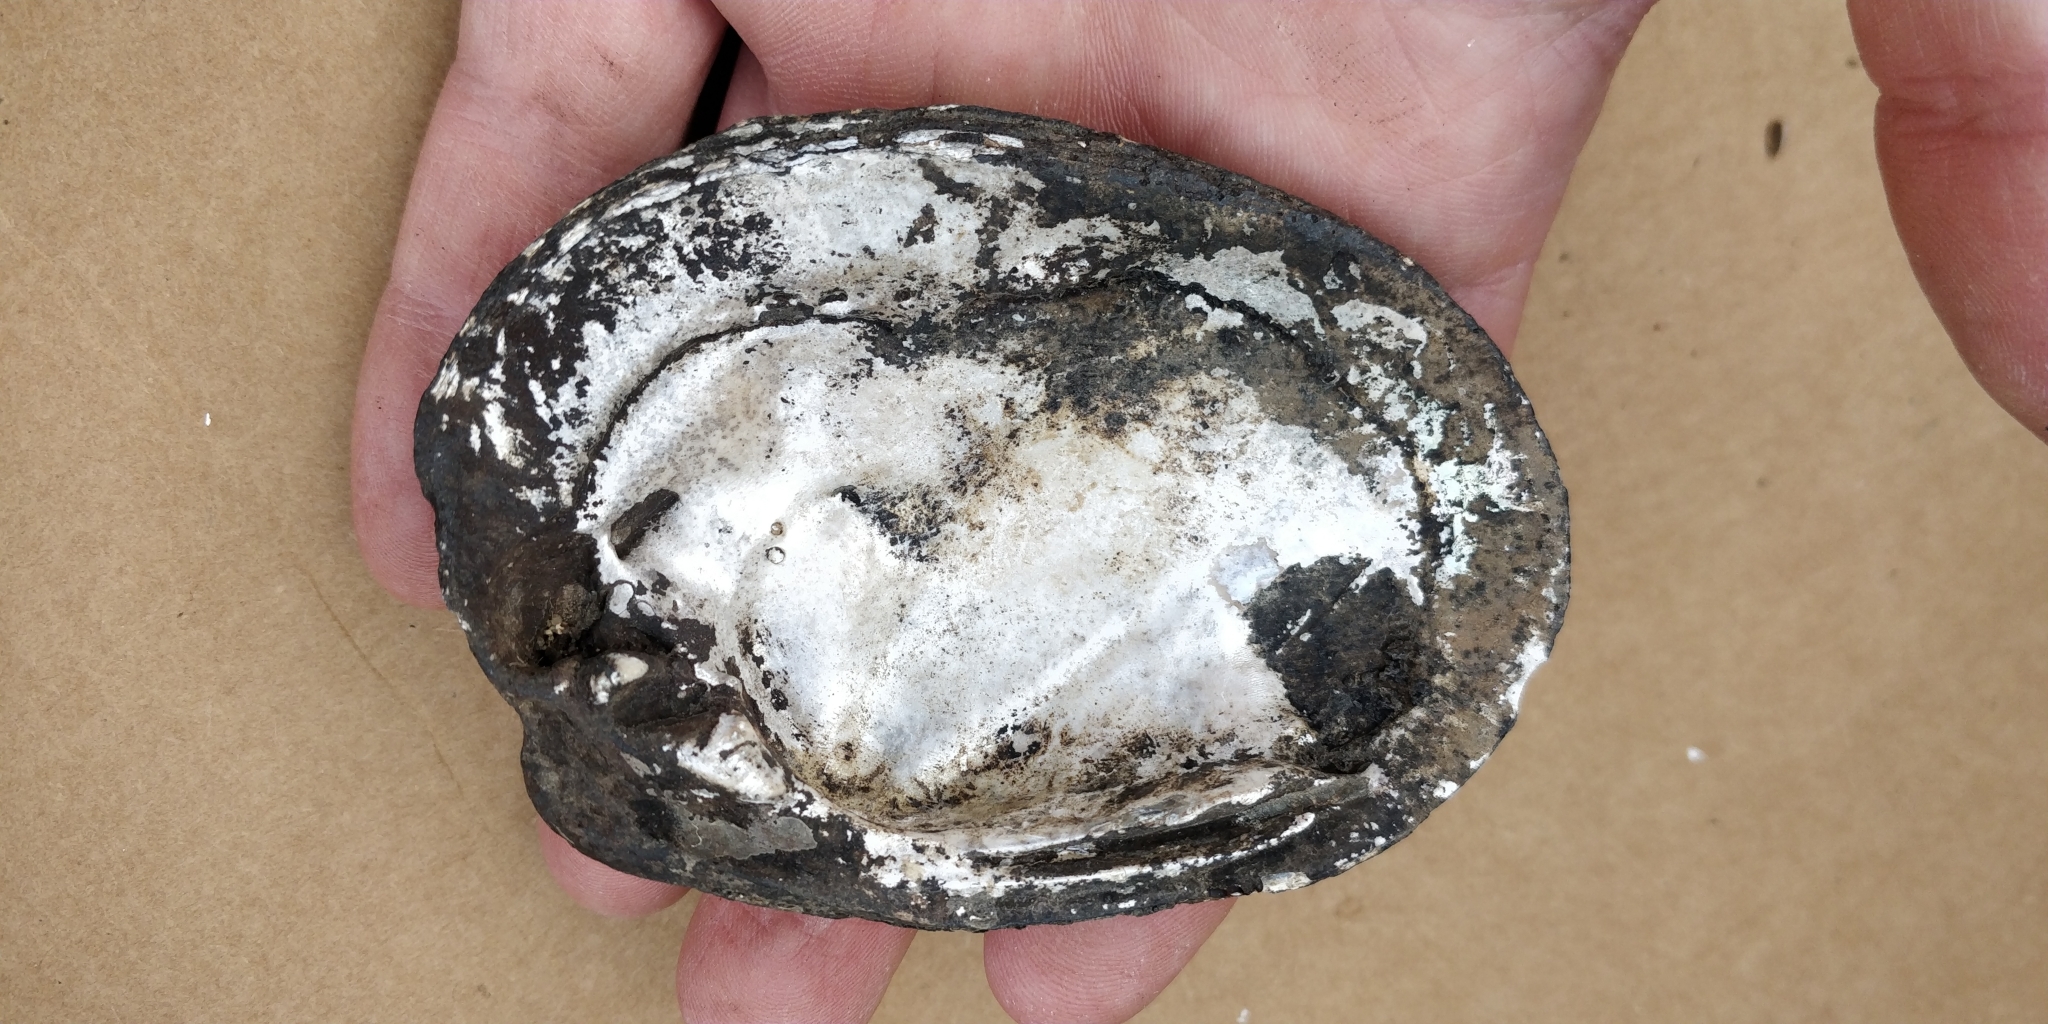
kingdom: Animalia
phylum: Mollusca
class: Bivalvia
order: Unionida
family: Unionidae
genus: Obovaria
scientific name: Obovaria olivaria
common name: Hickorynut
